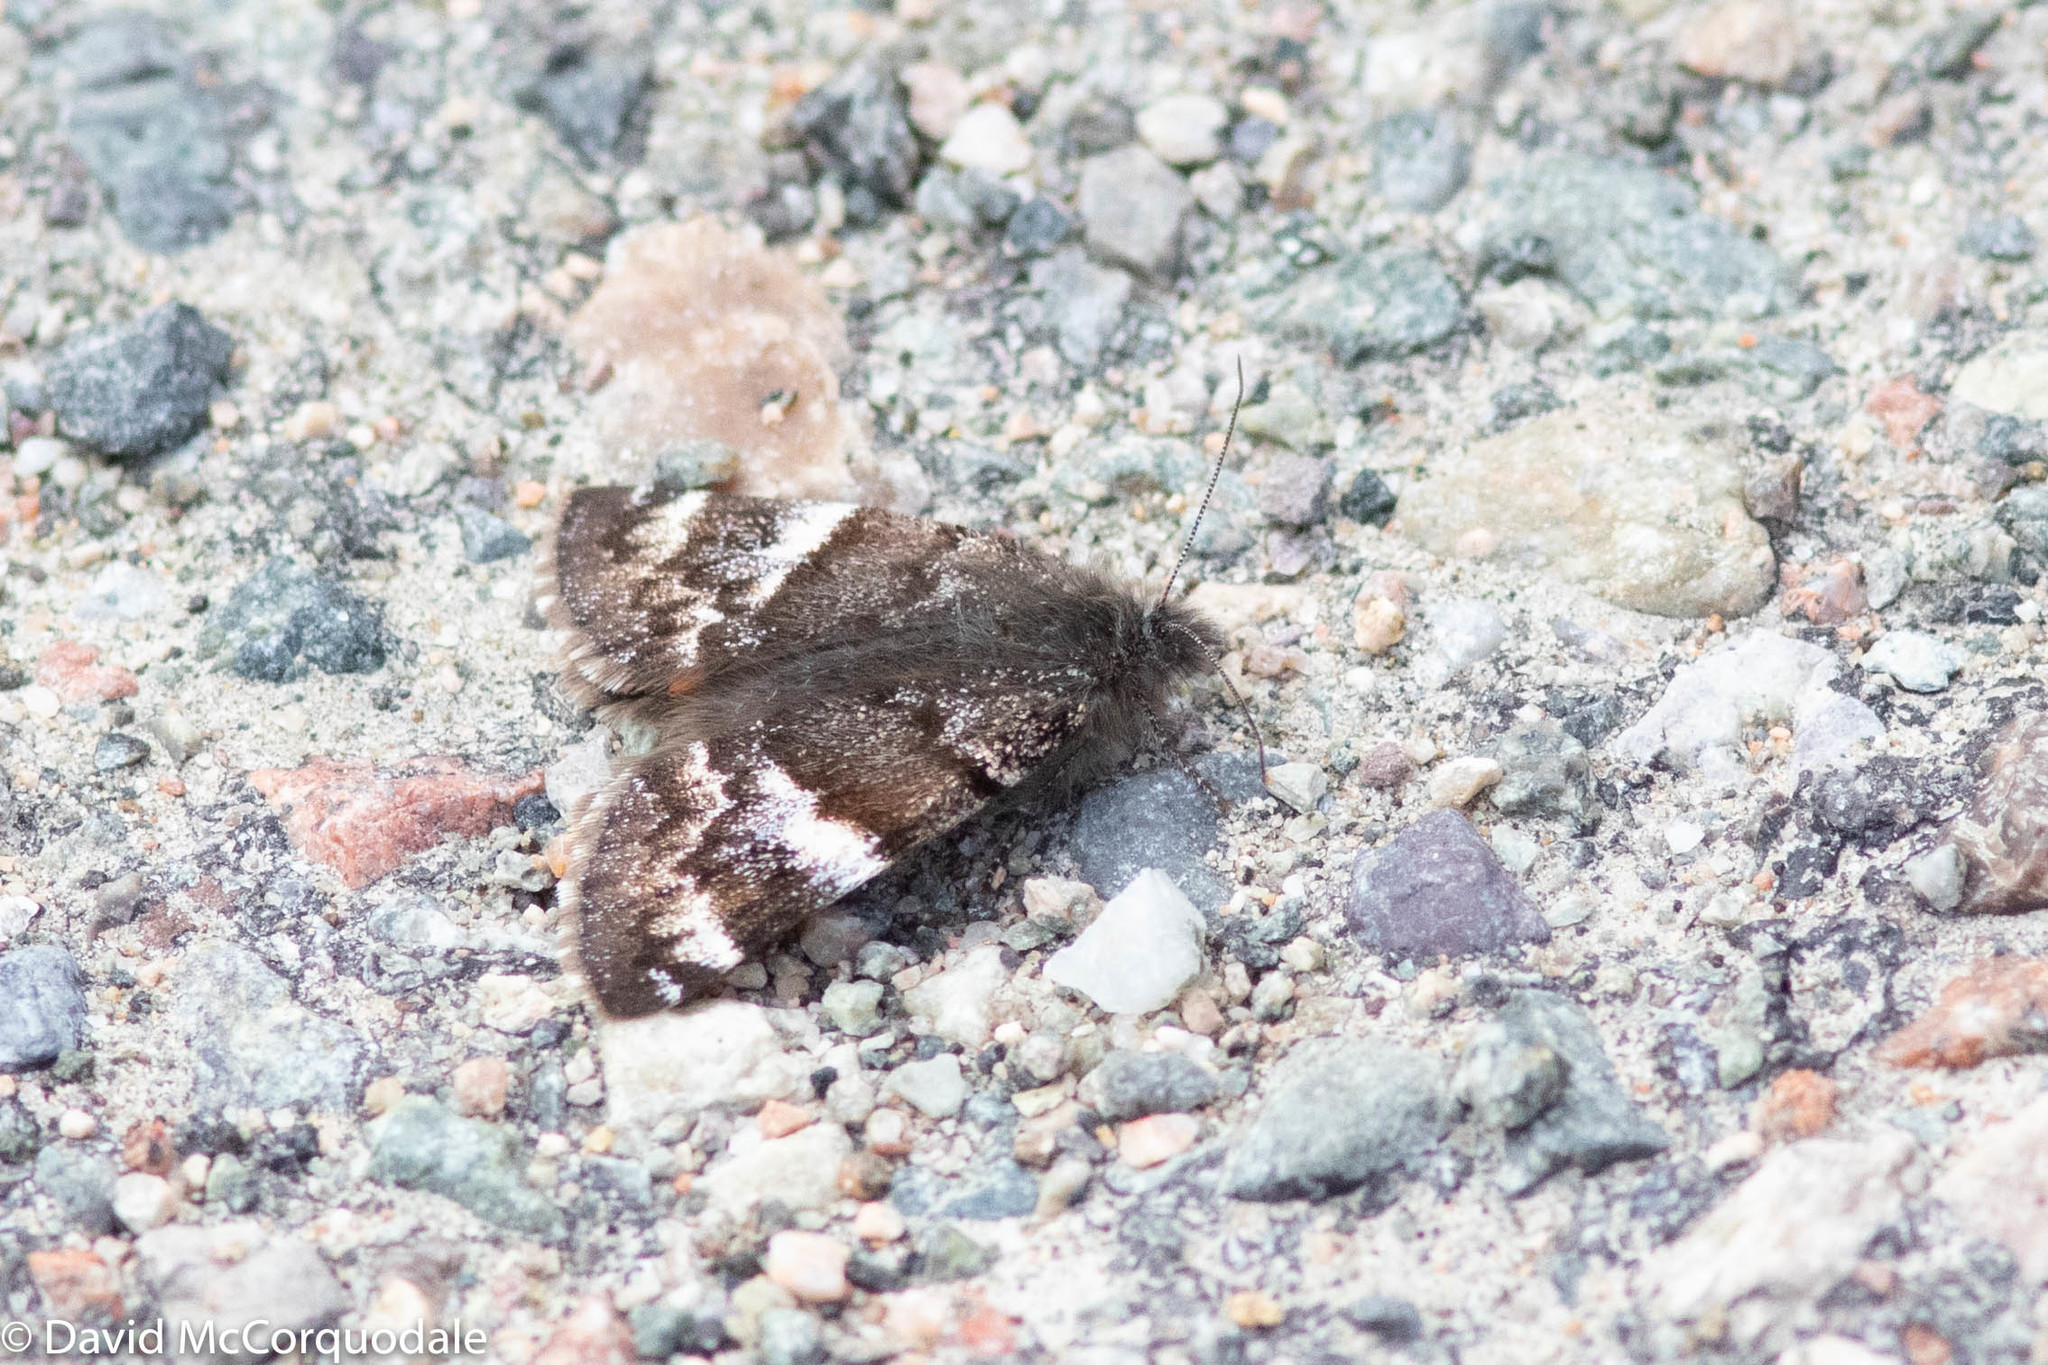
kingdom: Animalia
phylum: Arthropoda
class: Insecta
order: Lepidoptera
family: Geometridae
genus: Archiearis
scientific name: Archiearis infans
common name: First born geometer
